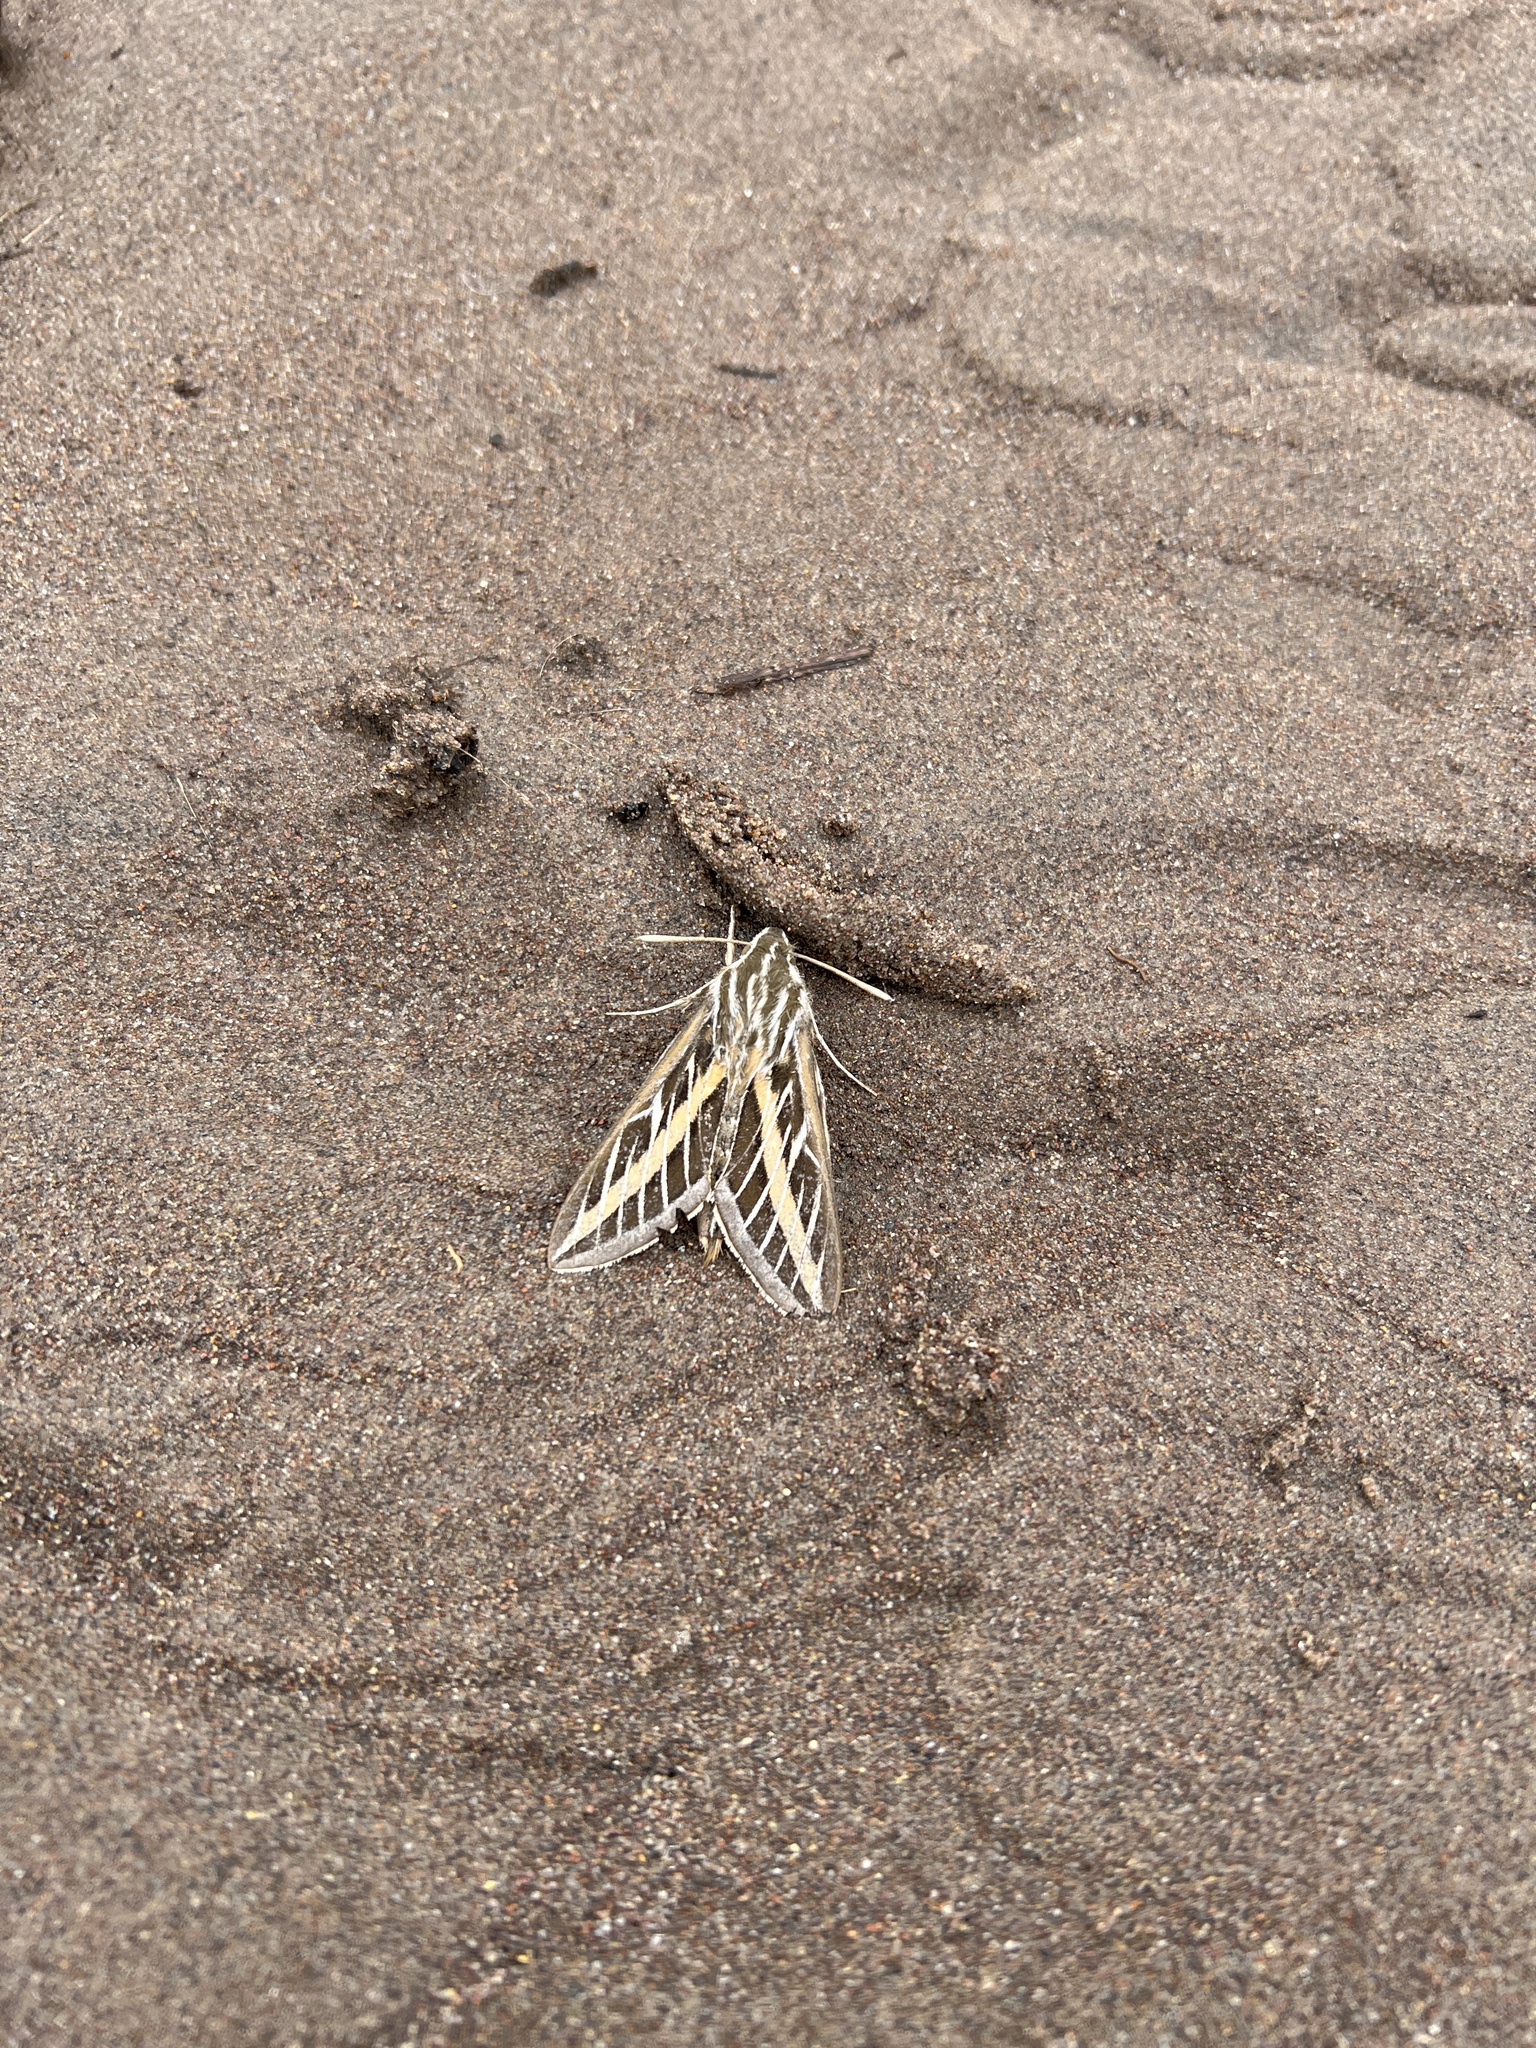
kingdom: Animalia
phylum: Arthropoda
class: Insecta
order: Lepidoptera
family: Sphingidae
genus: Hyles
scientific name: Hyles lineata
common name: White-lined sphinx
